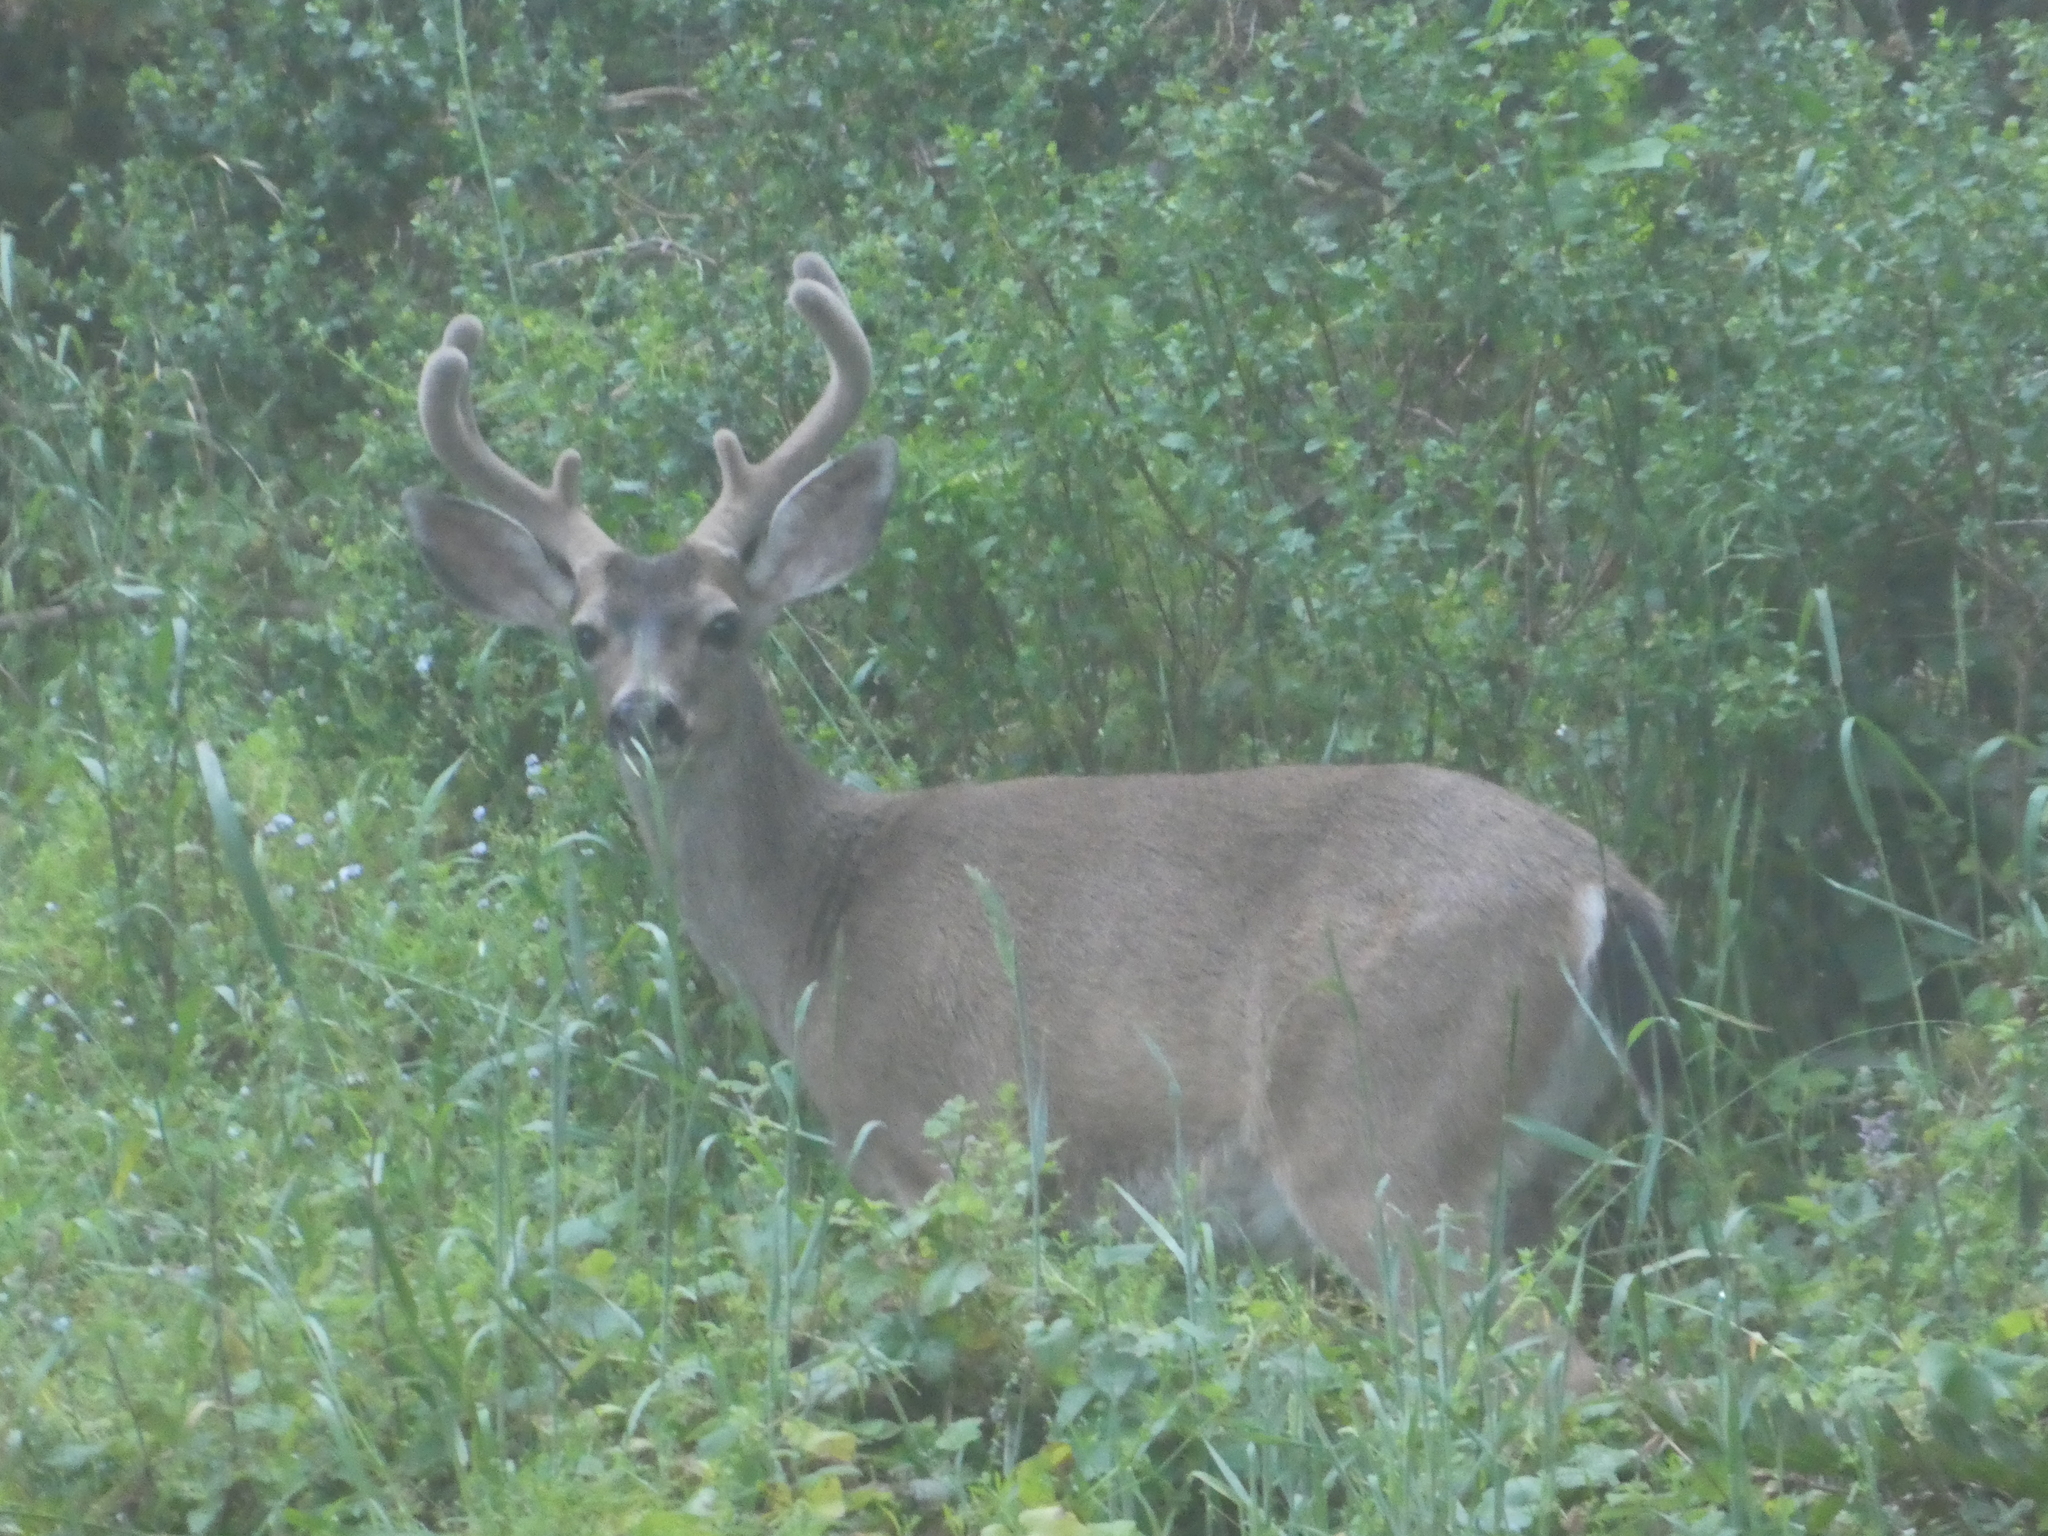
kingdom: Animalia
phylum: Chordata
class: Mammalia
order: Artiodactyla
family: Cervidae
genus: Odocoileus
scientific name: Odocoileus hemionus
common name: Mule deer
